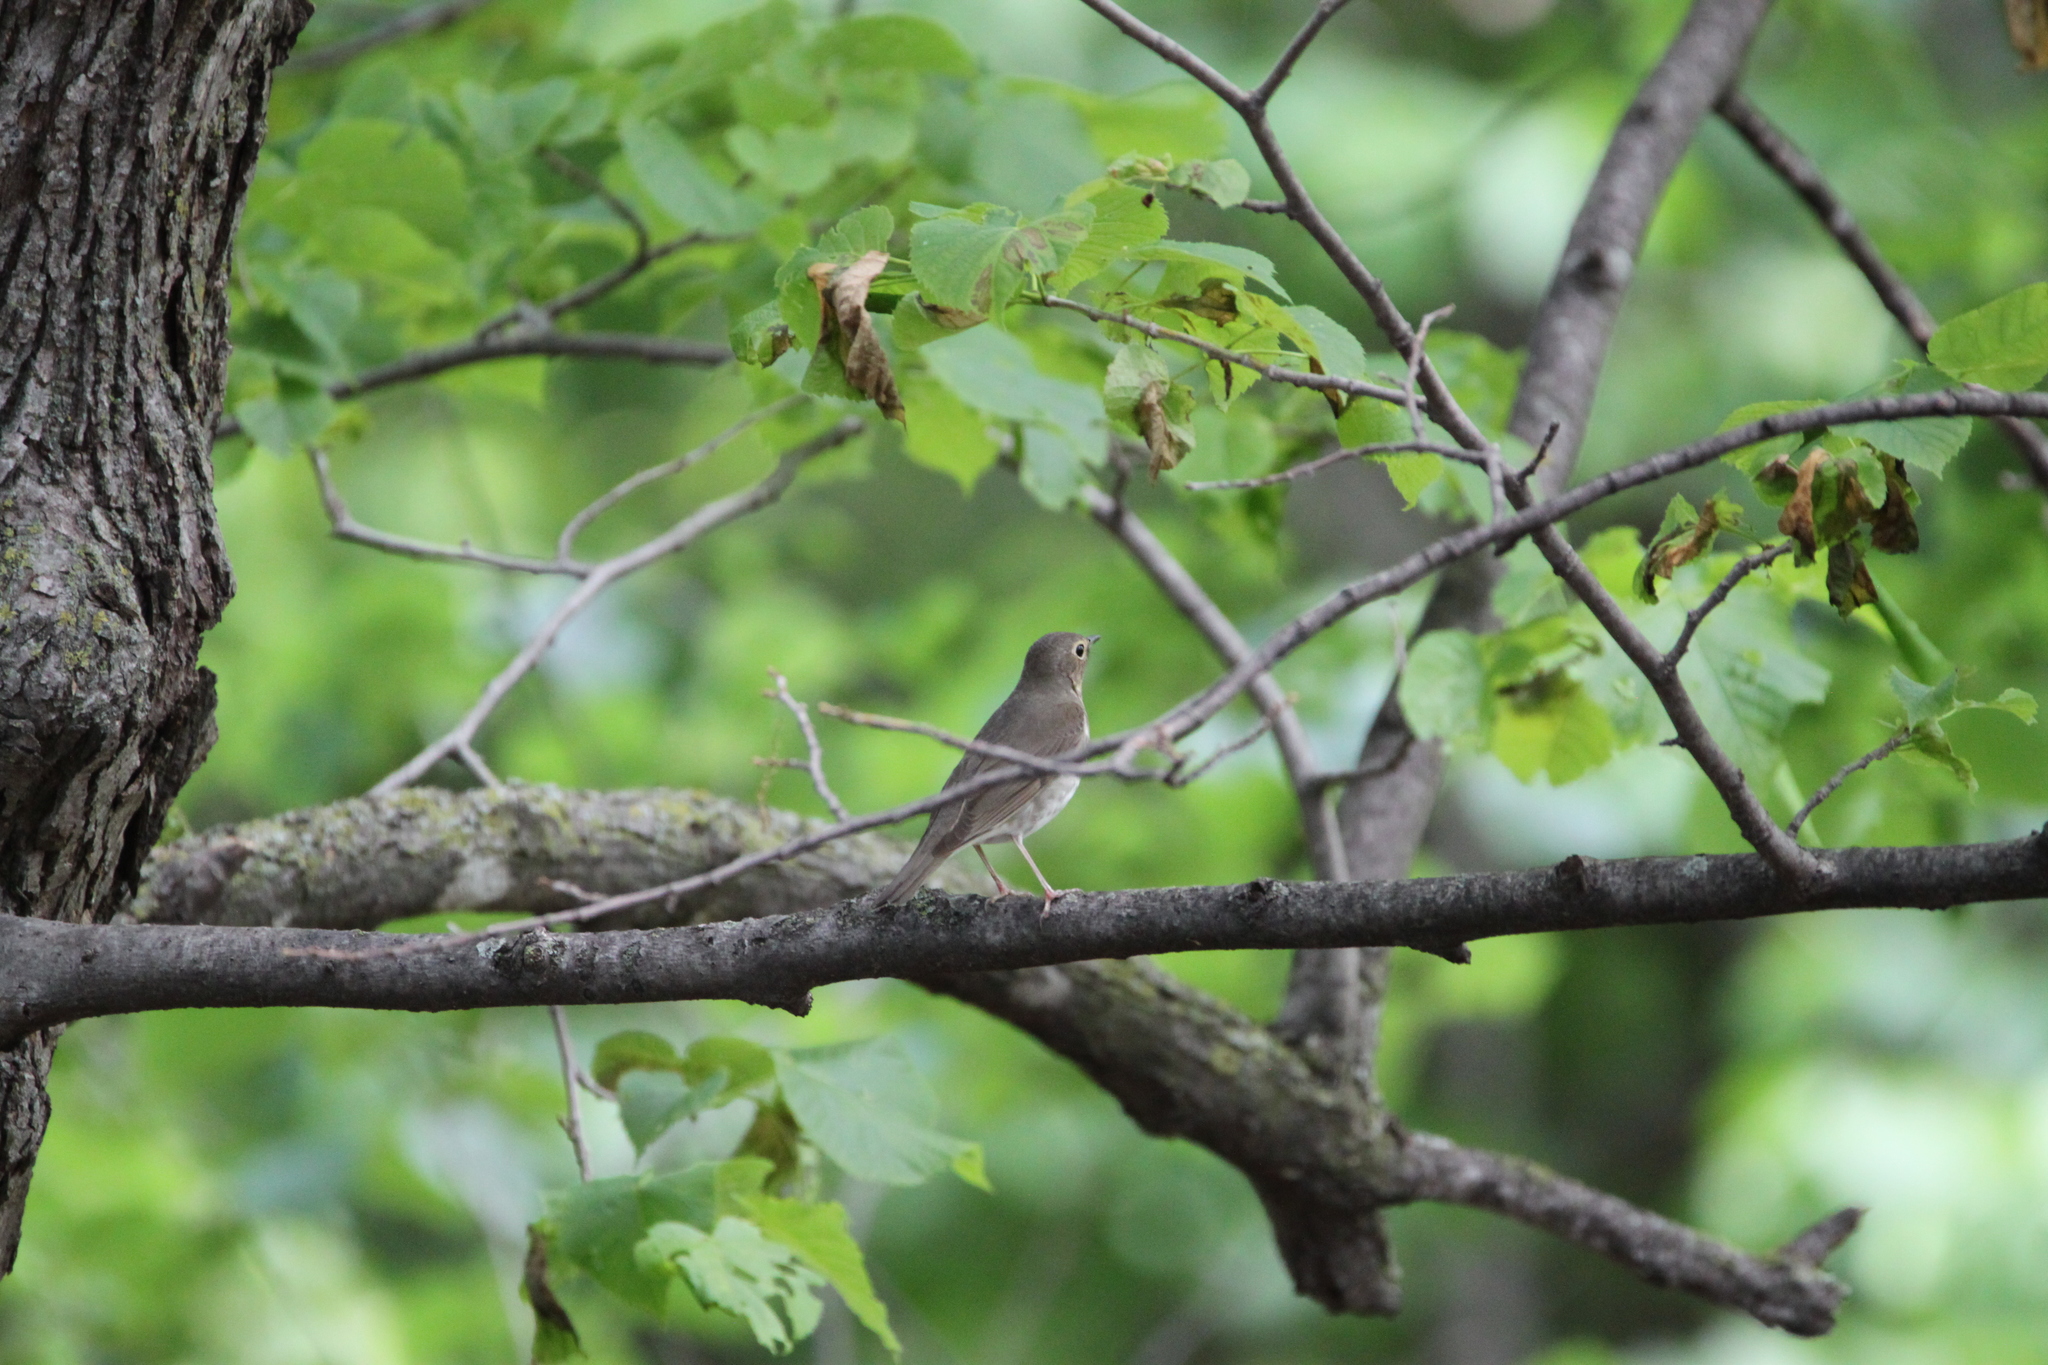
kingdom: Animalia
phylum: Chordata
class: Aves
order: Passeriformes
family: Turdidae
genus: Catharus
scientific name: Catharus ustulatus
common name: Swainson's thrush
